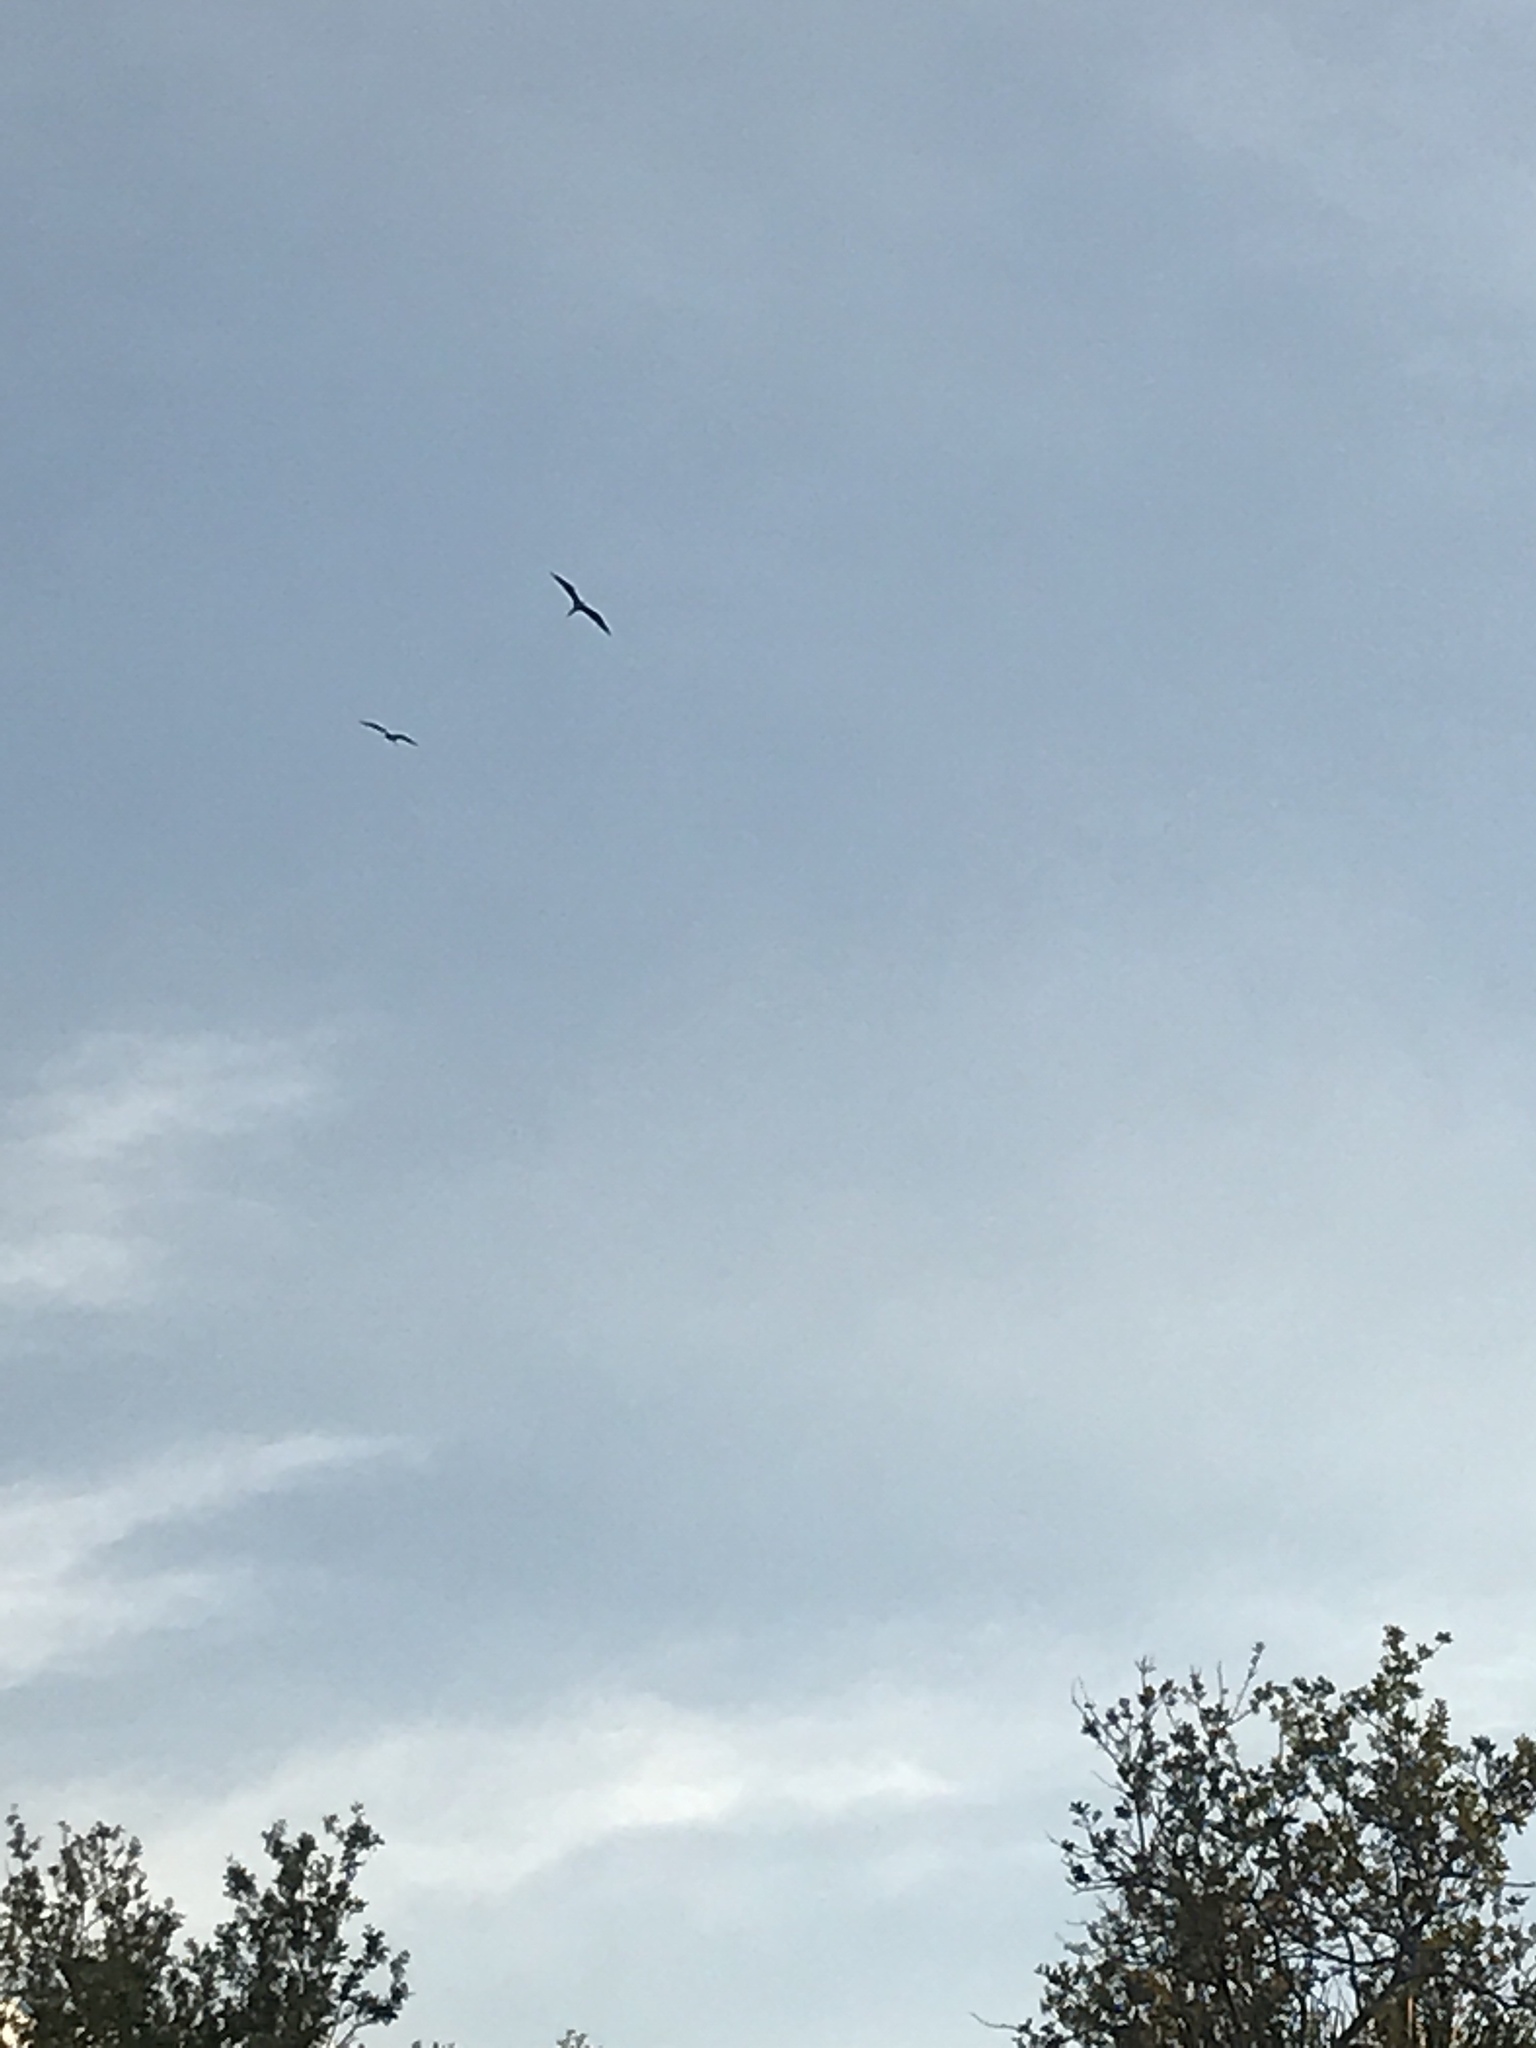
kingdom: Animalia
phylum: Chordata
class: Aves
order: Suliformes
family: Fregatidae
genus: Fregata
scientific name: Fregata magnificens
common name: Magnificent frigatebird
